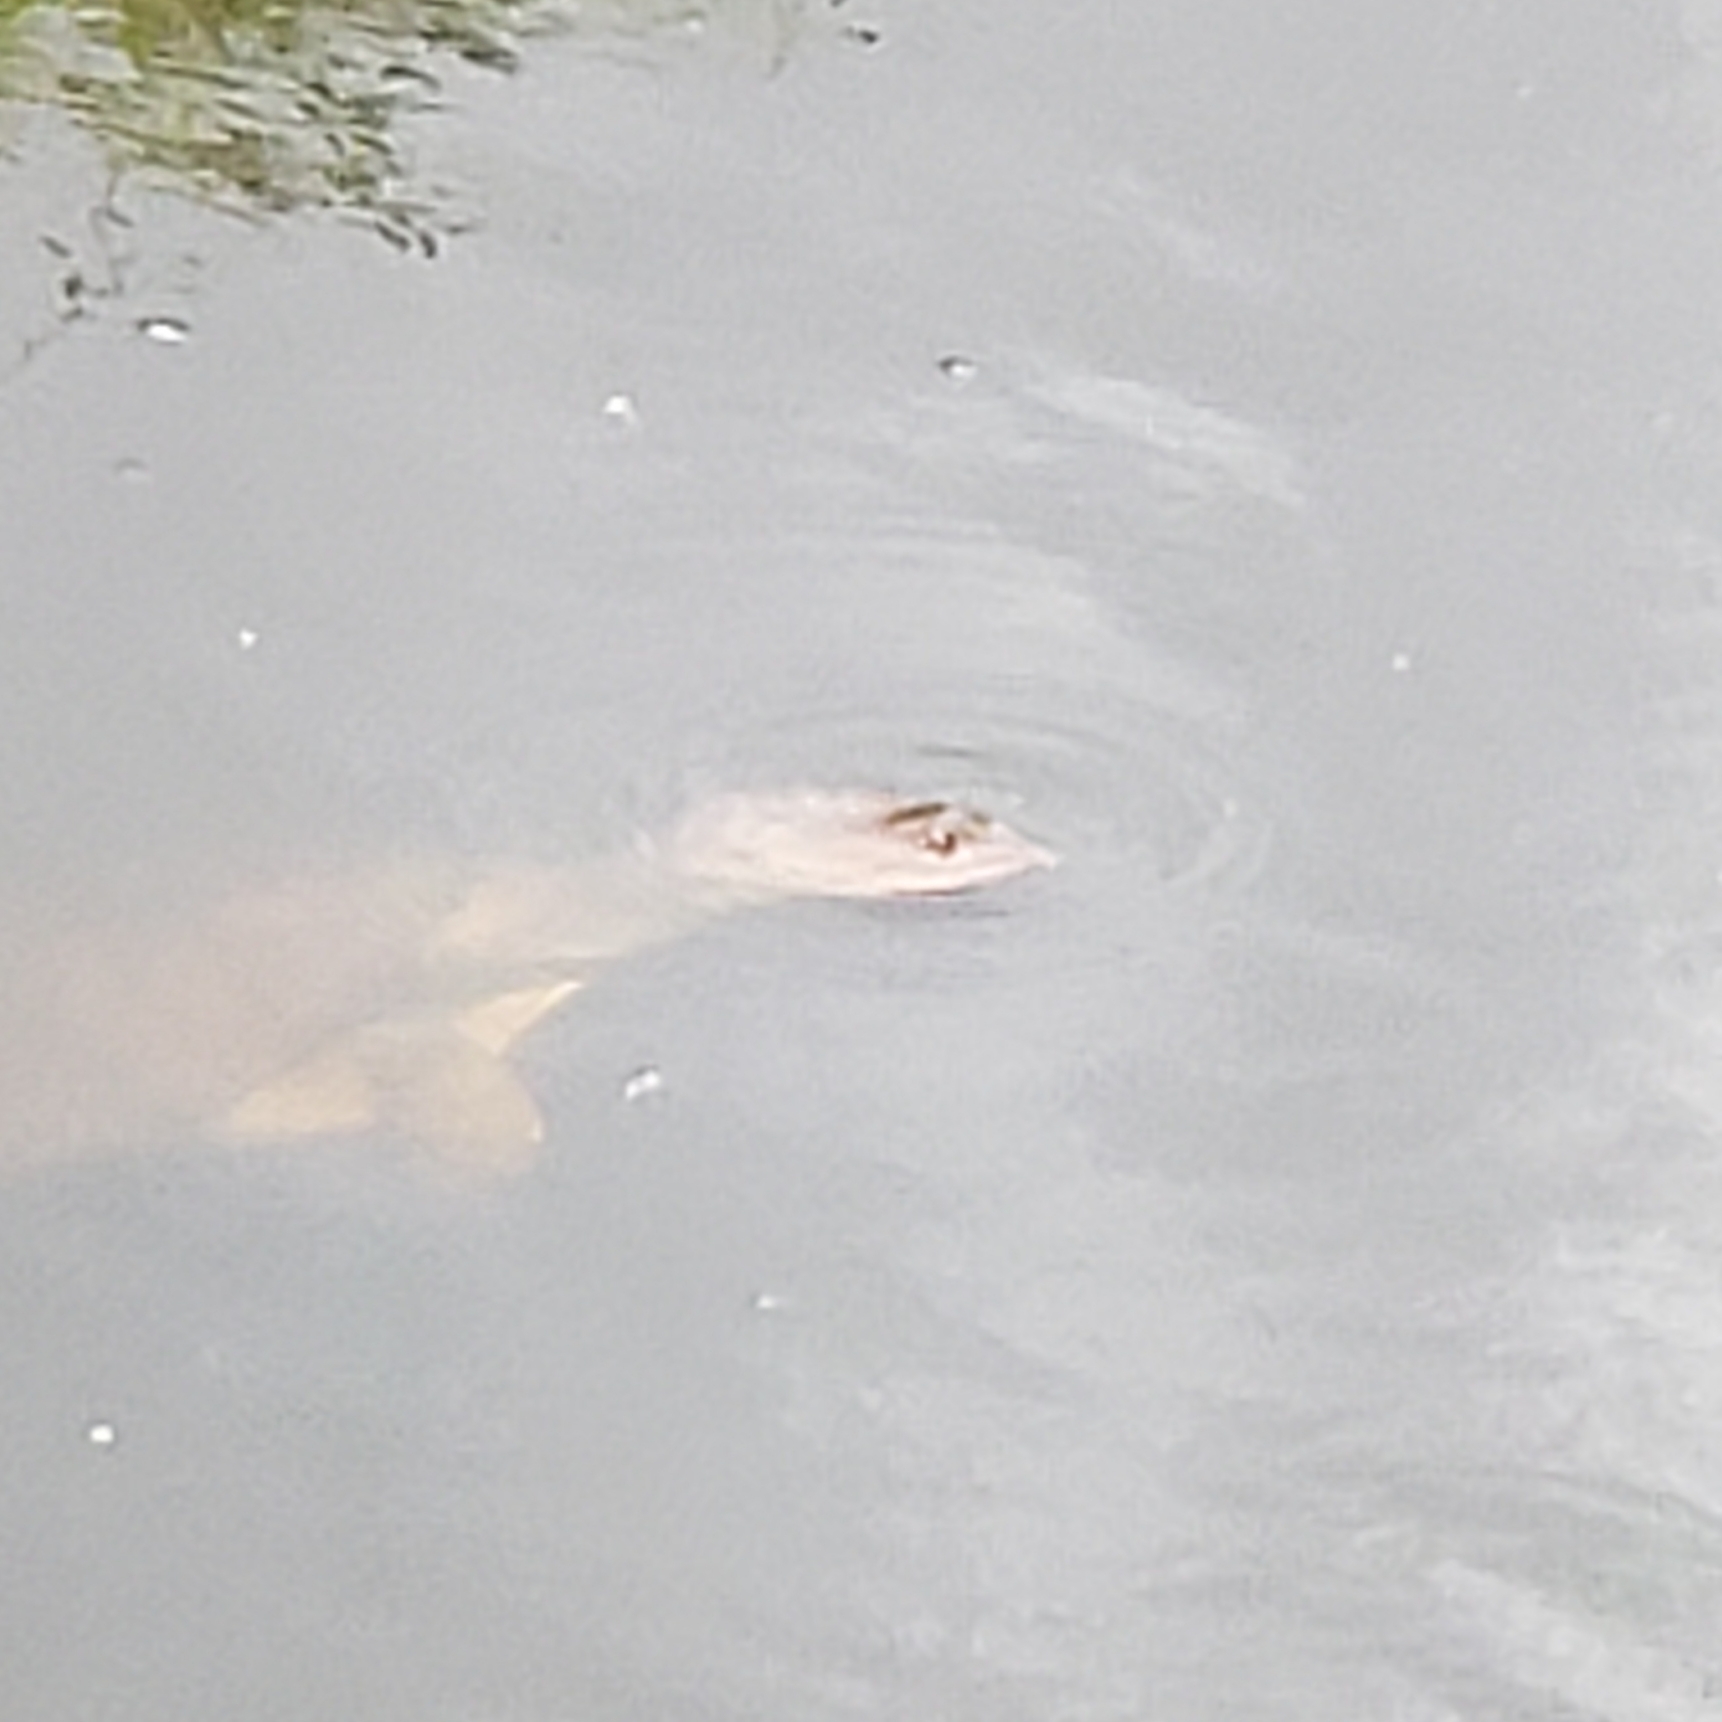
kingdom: Animalia
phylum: Chordata
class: Testudines
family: Trionychidae
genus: Apalone
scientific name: Apalone ferox
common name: Florida softshell turtle
